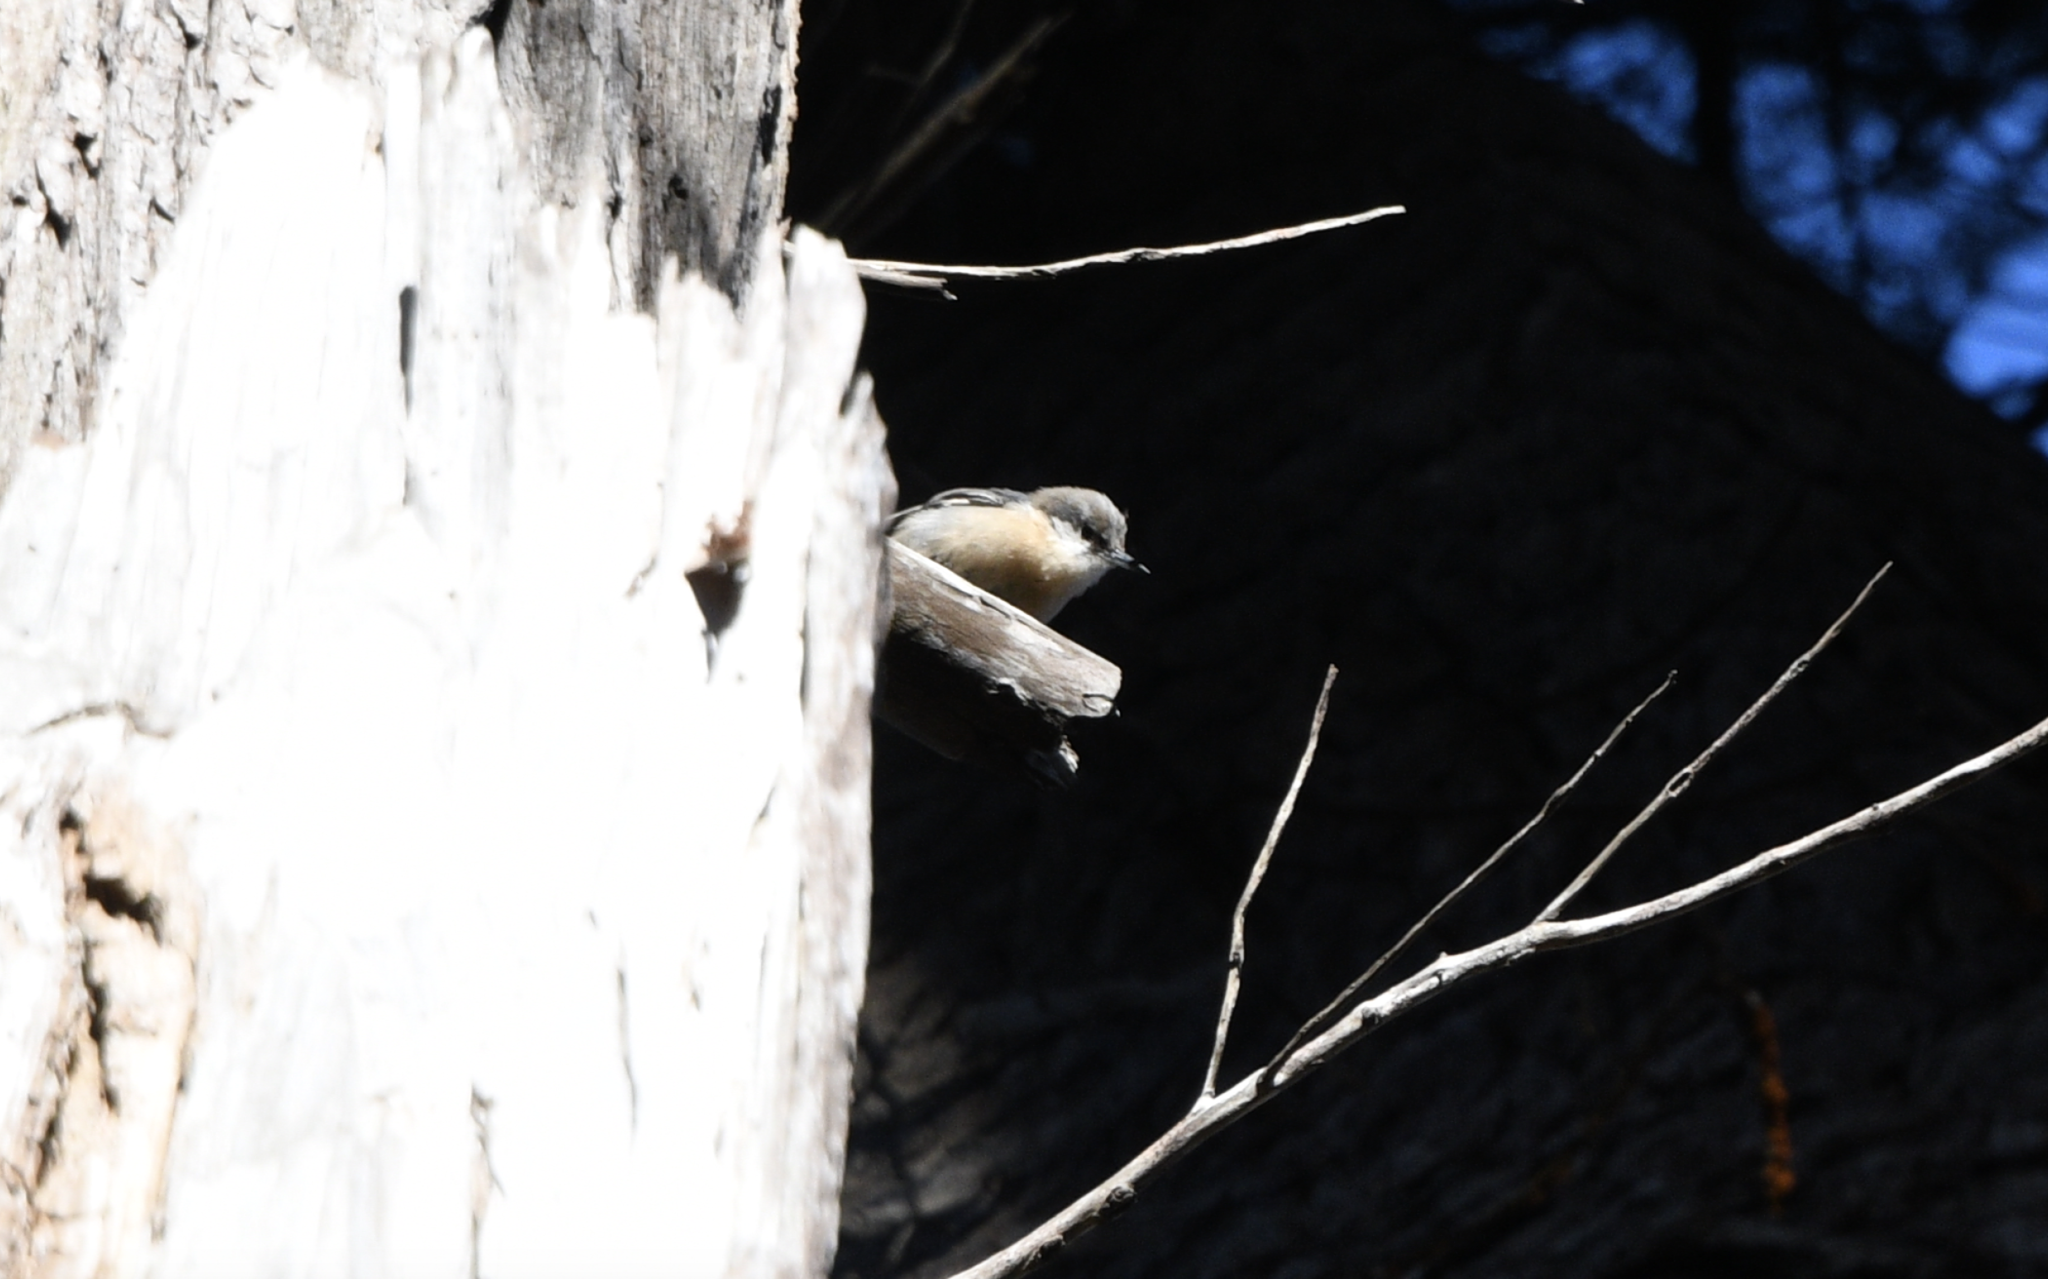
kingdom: Animalia
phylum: Chordata
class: Aves
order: Passeriformes
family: Sittidae
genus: Sitta
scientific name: Sitta pygmaea
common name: Pygmy nuthatch
